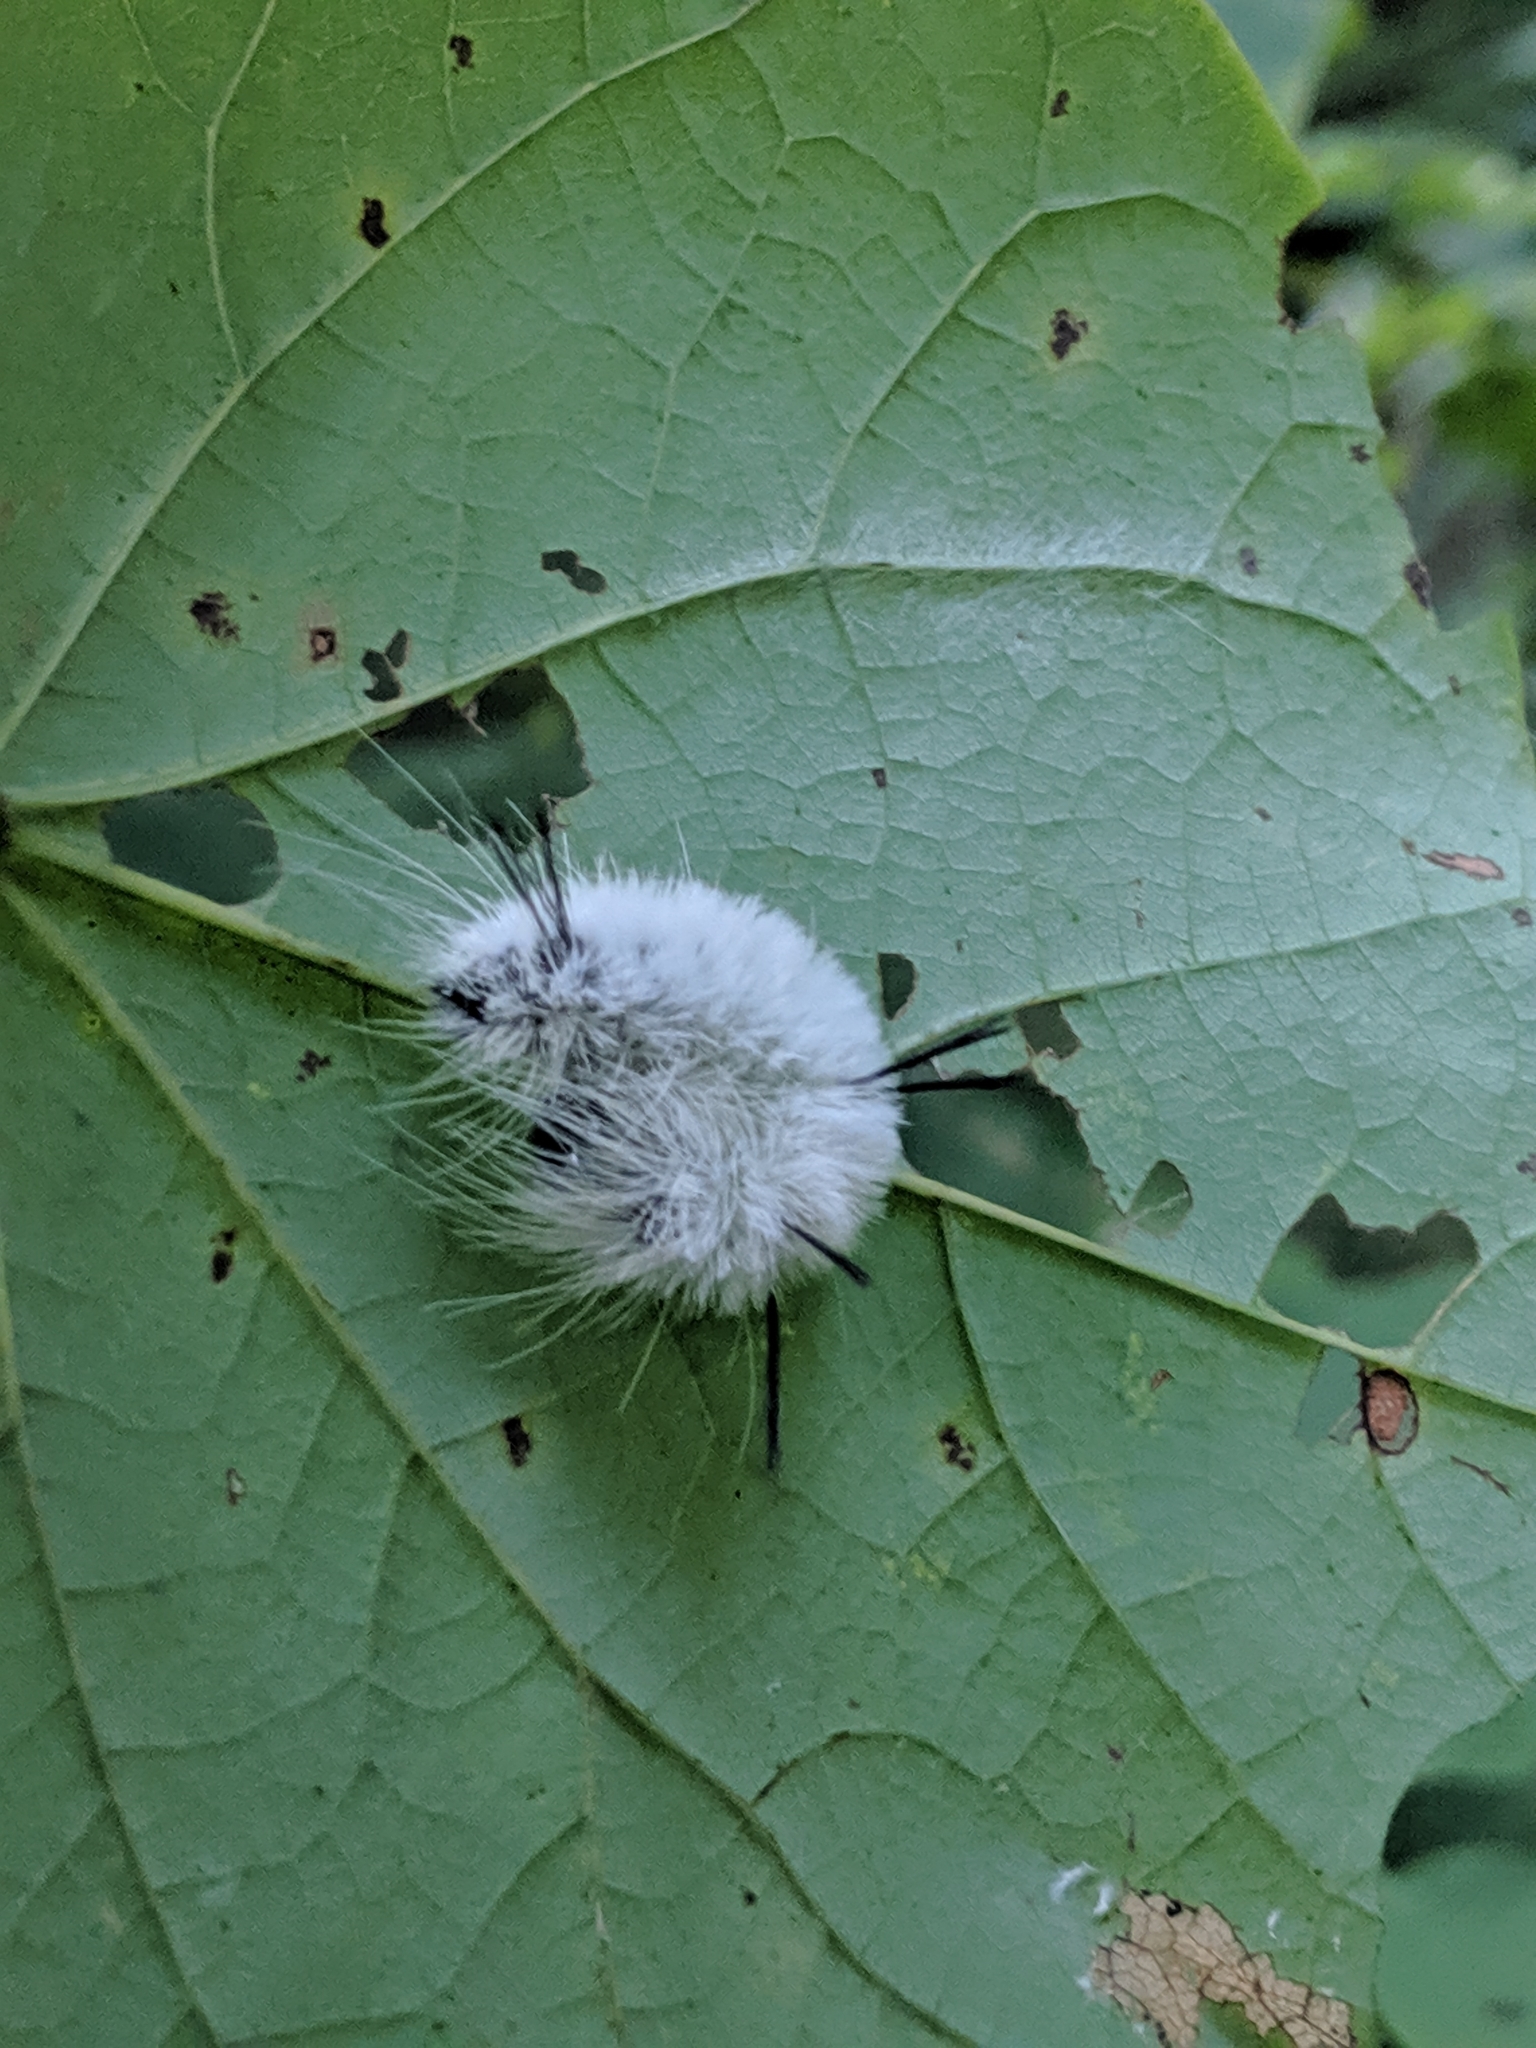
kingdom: Animalia
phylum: Arthropoda
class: Insecta
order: Lepidoptera
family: Noctuidae
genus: Acronicta
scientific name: Acronicta americana
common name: American dagger
